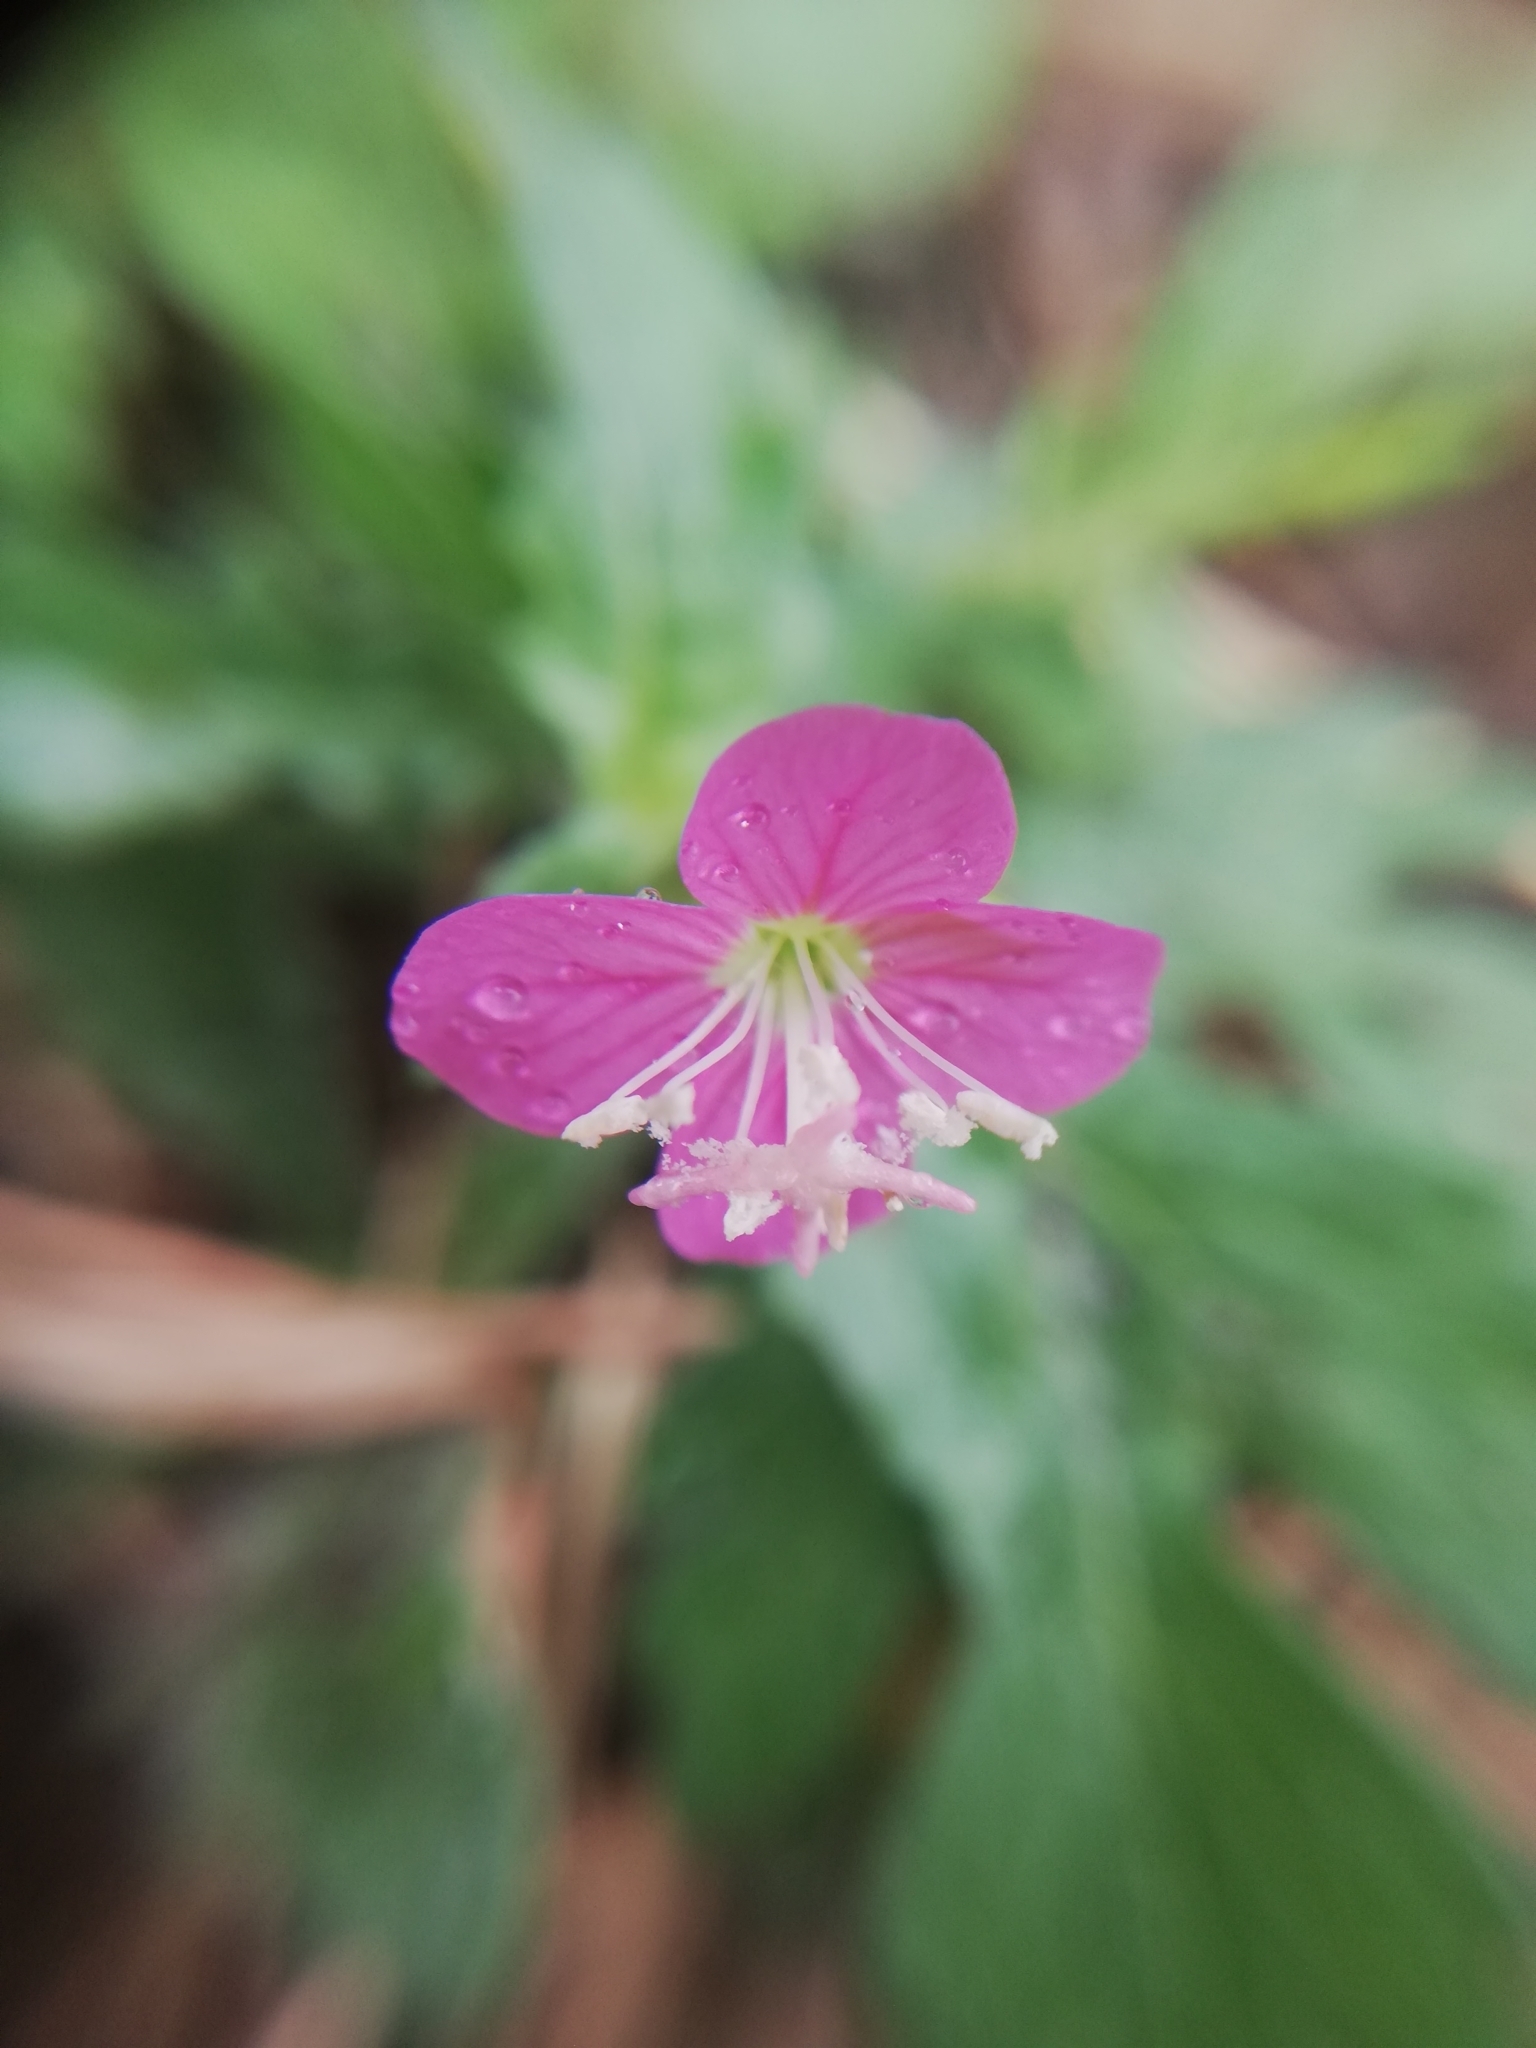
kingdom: Plantae
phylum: Tracheophyta
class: Magnoliopsida
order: Myrtales
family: Onagraceae
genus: Oenothera
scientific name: Oenothera rosea
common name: Rosy evening-primrose
